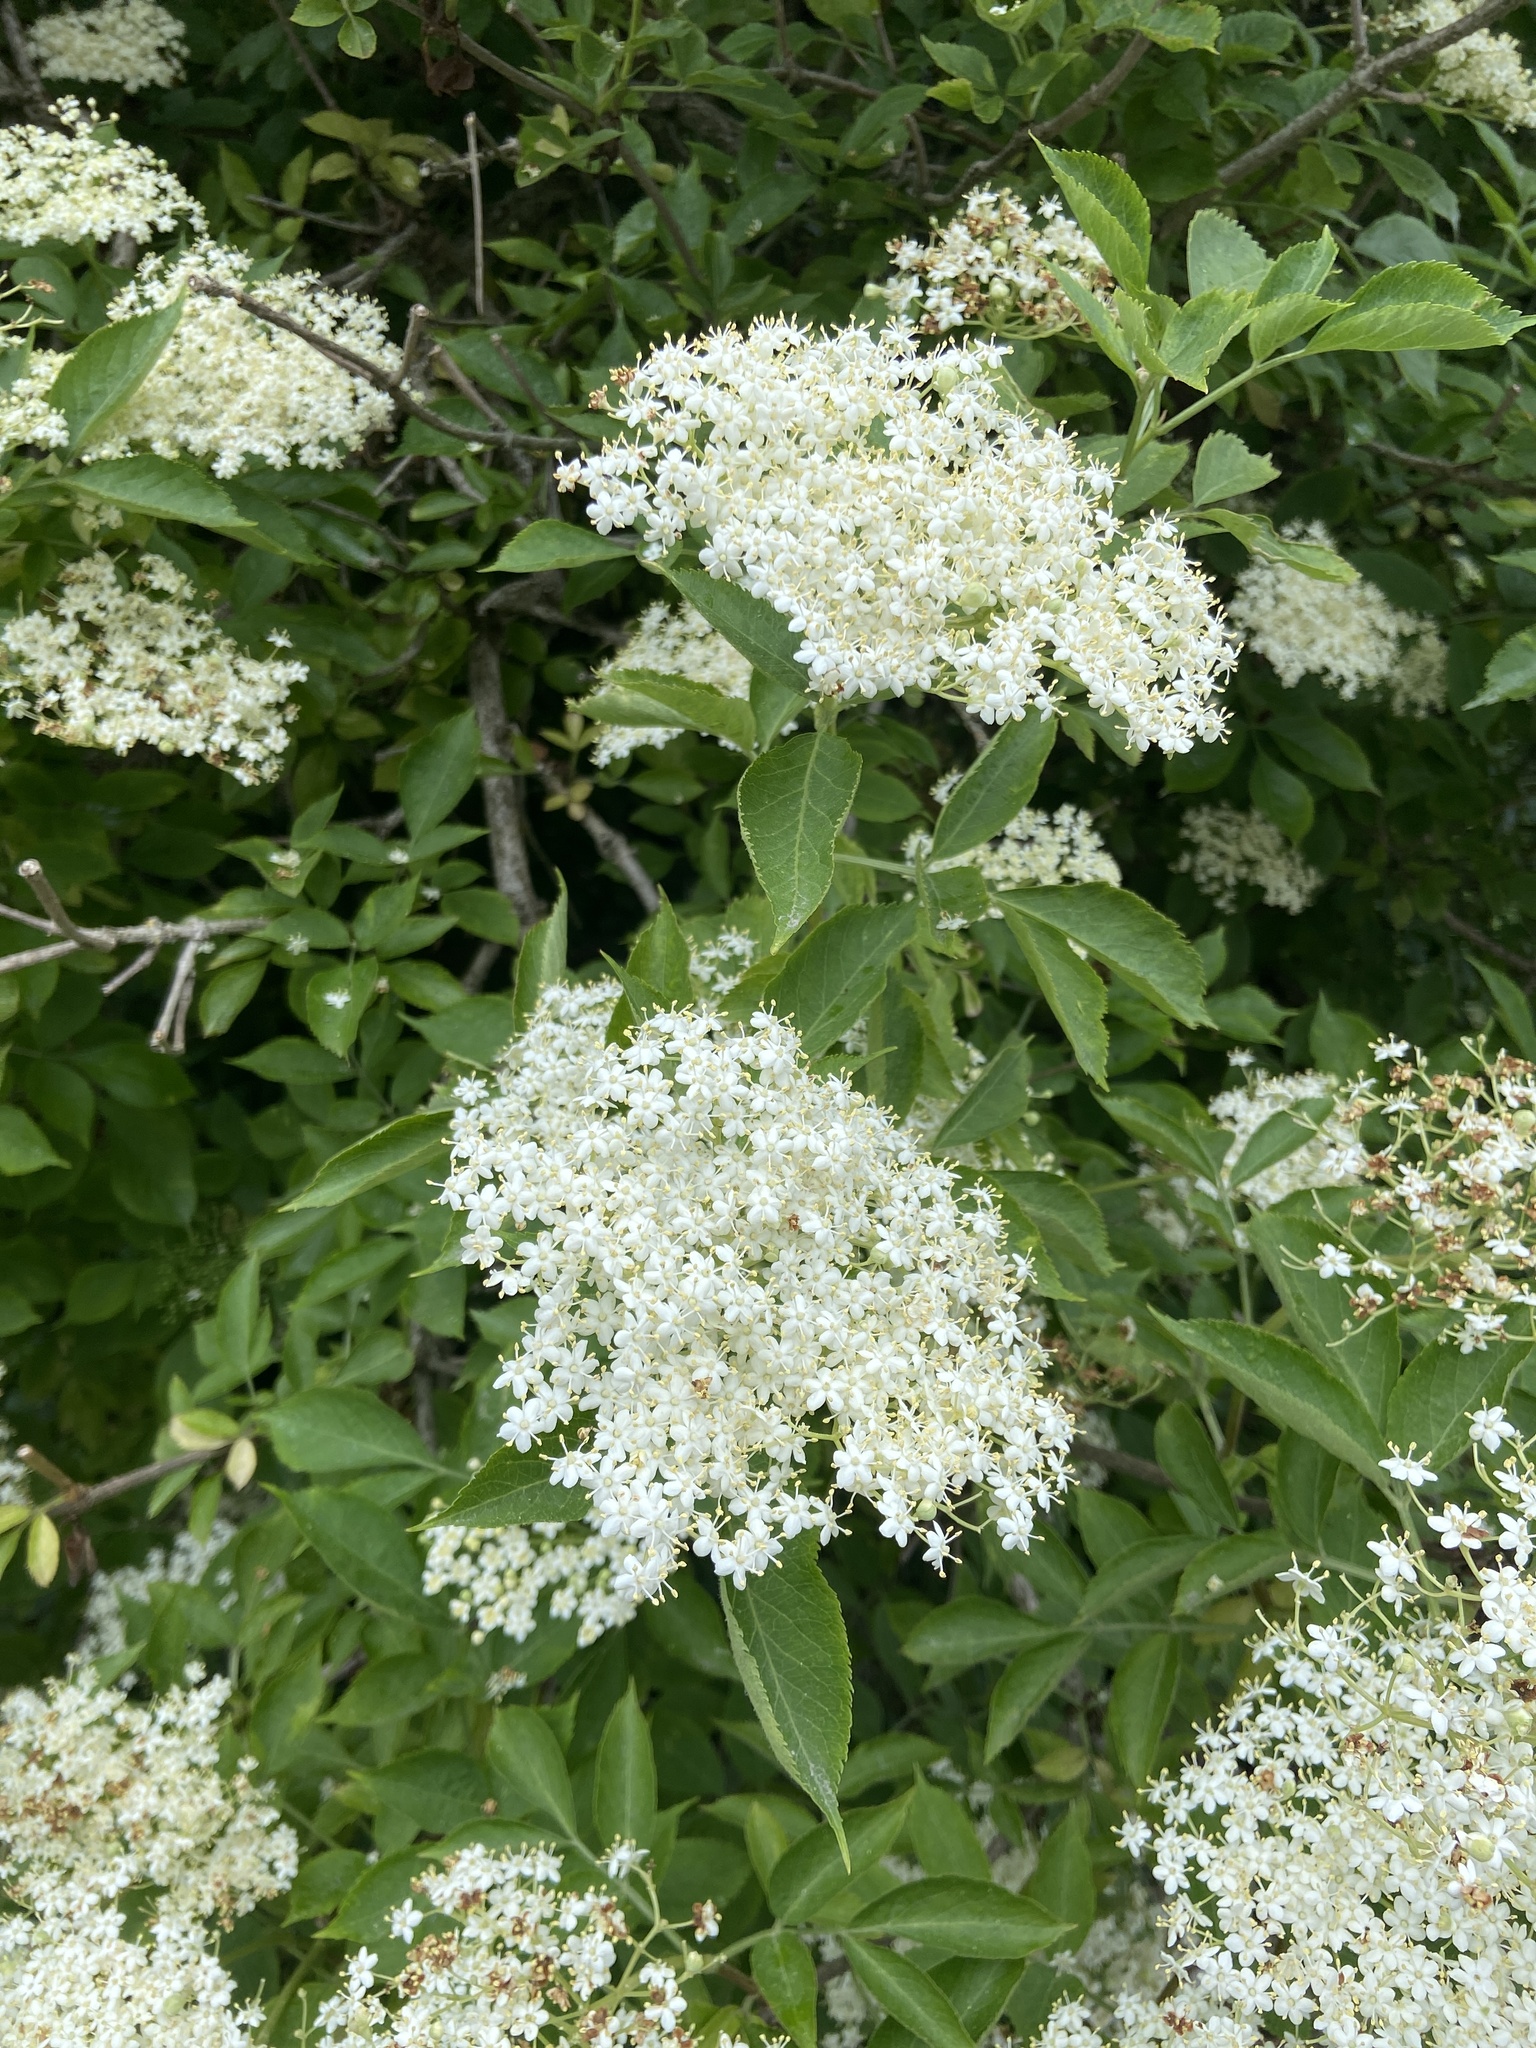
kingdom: Plantae
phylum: Tracheophyta
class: Magnoliopsida
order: Dipsacales
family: Viburnaceae
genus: Sambucus
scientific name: Sambucus nigra
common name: Elder
